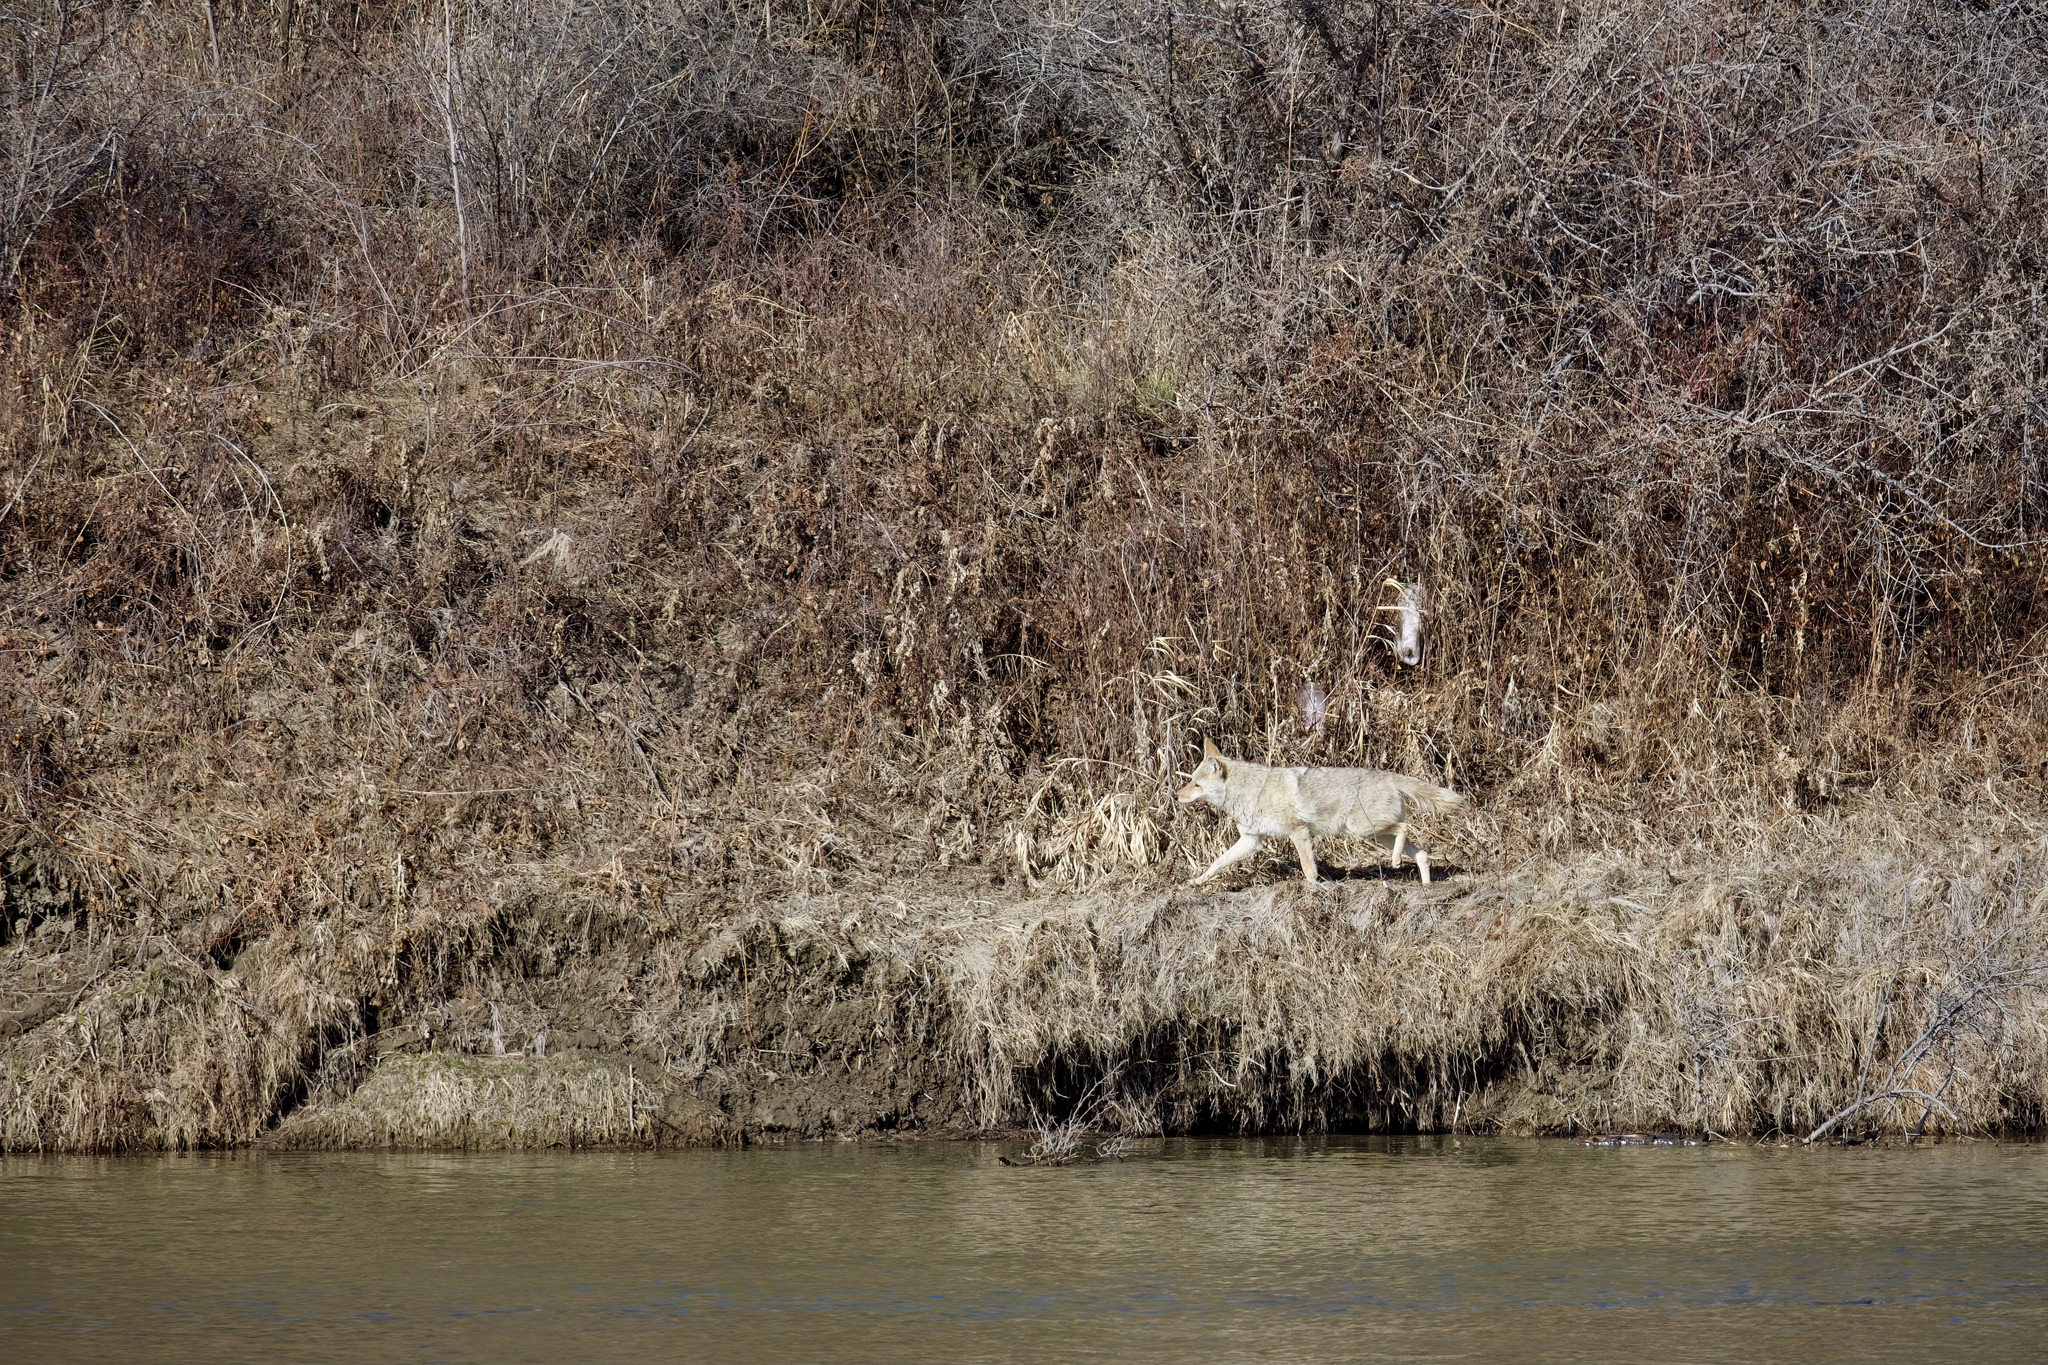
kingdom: Animalia
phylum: Chordata
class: Mammalia
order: Carnivora
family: Canidae
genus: Canis
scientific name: Canis latrans
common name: Coyote
